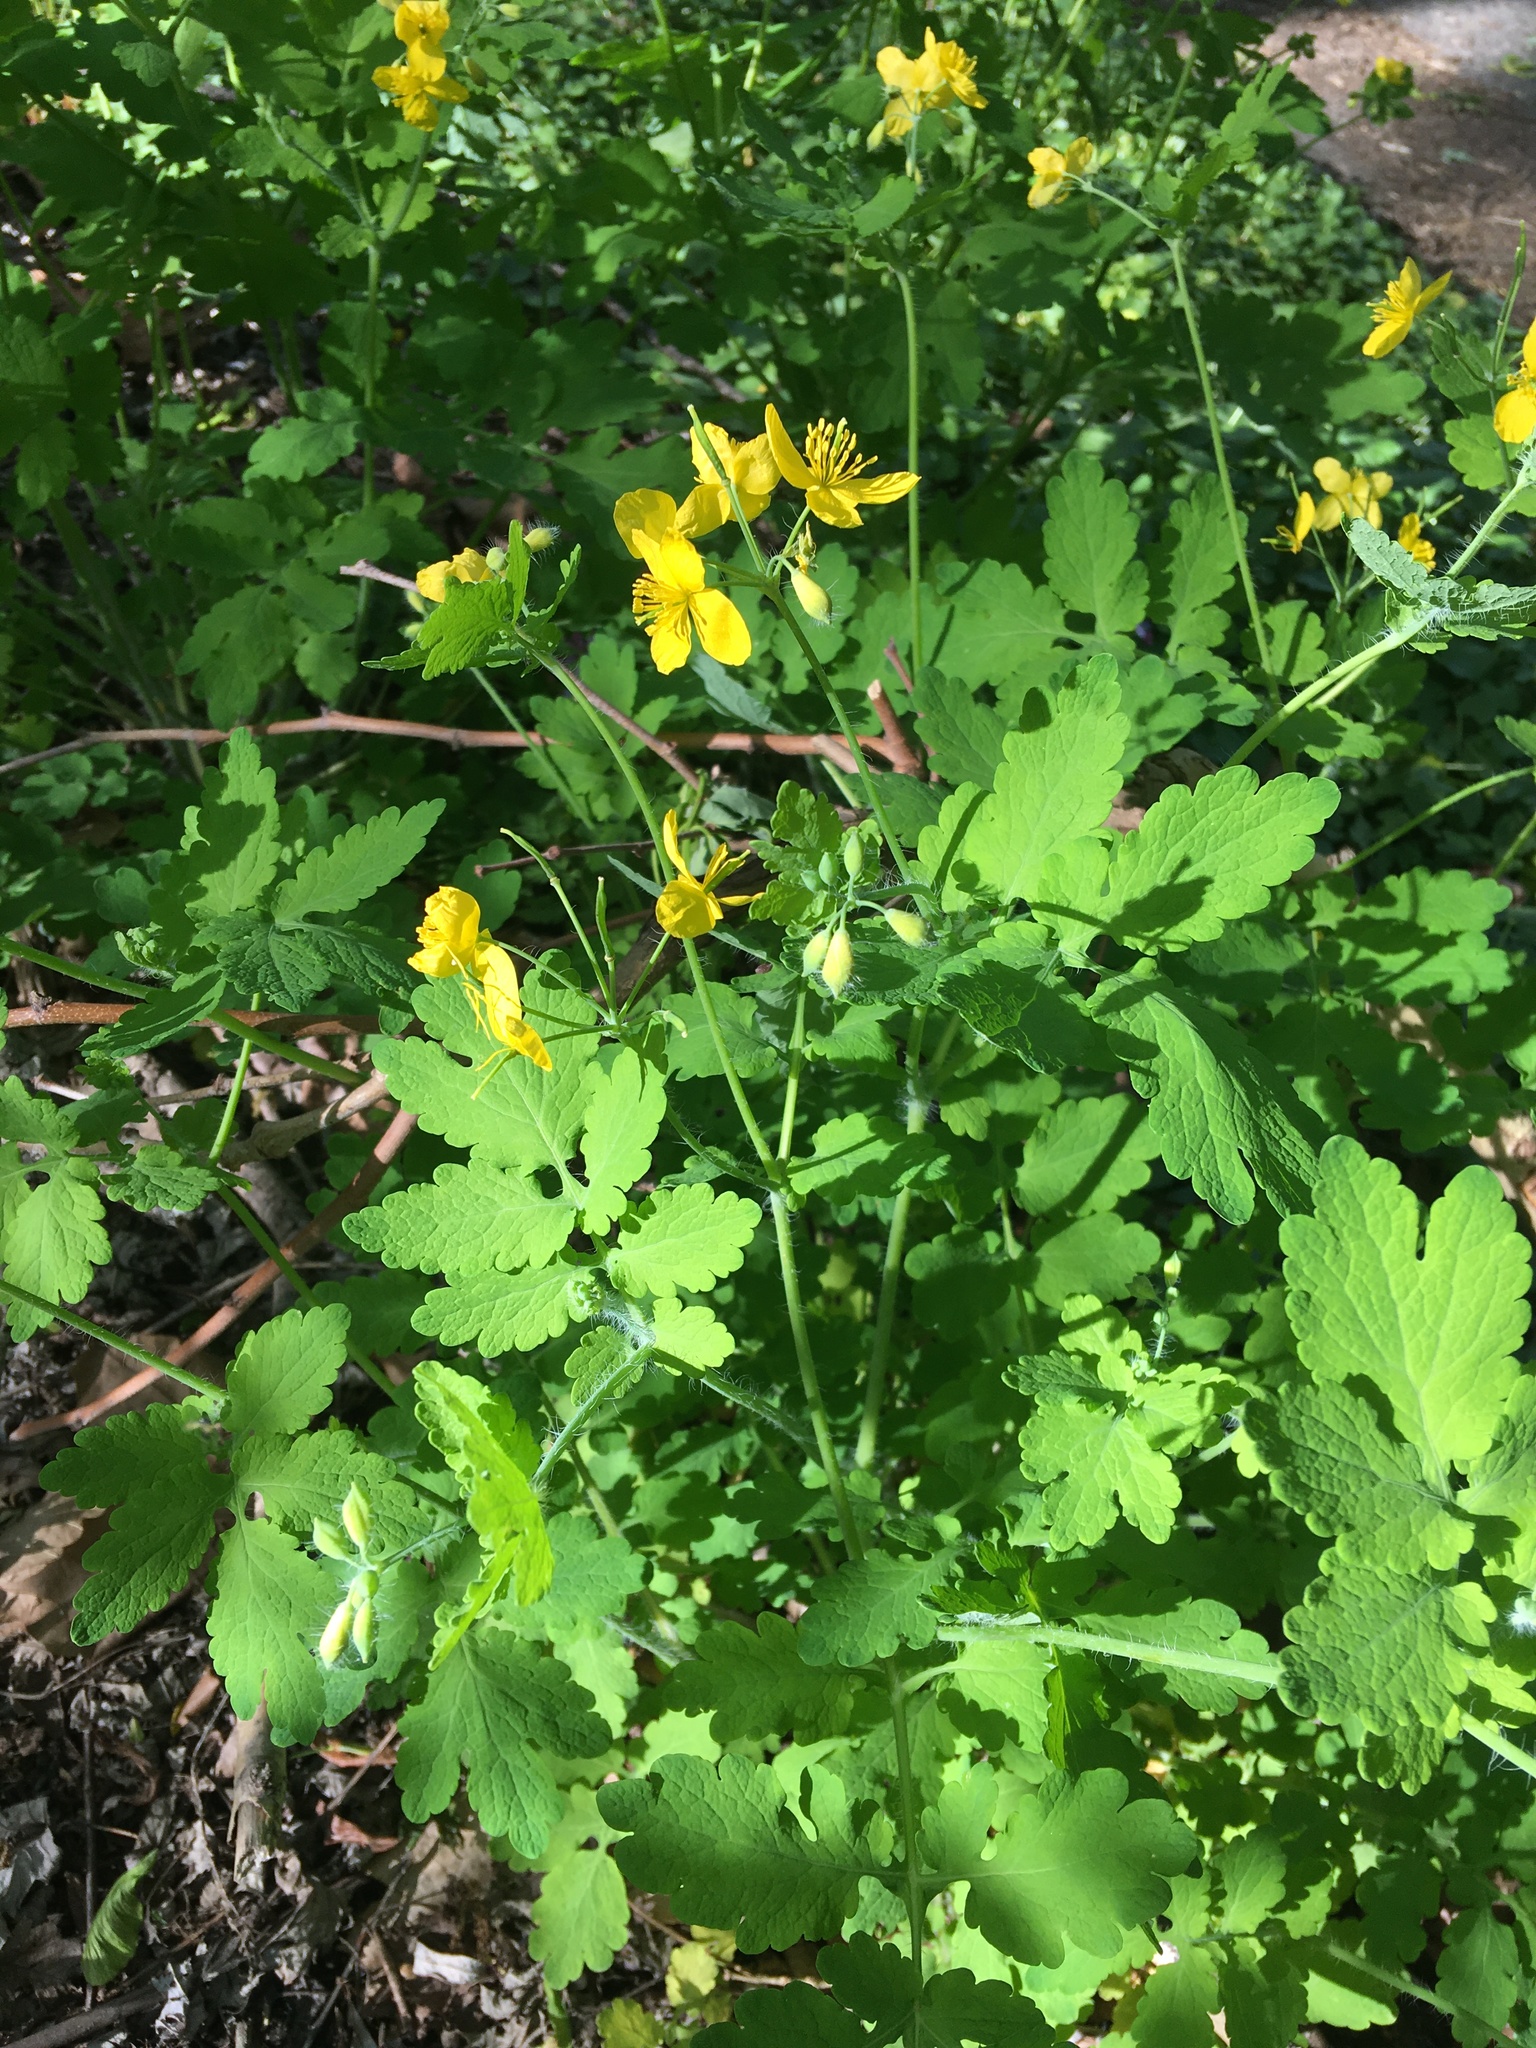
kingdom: Plantae
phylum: Tracheophyta
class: Magnoliopsida
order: Ranunculales
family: Papaveraceae
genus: Chelidonium
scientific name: Chelidonium majus
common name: Greater celandine
